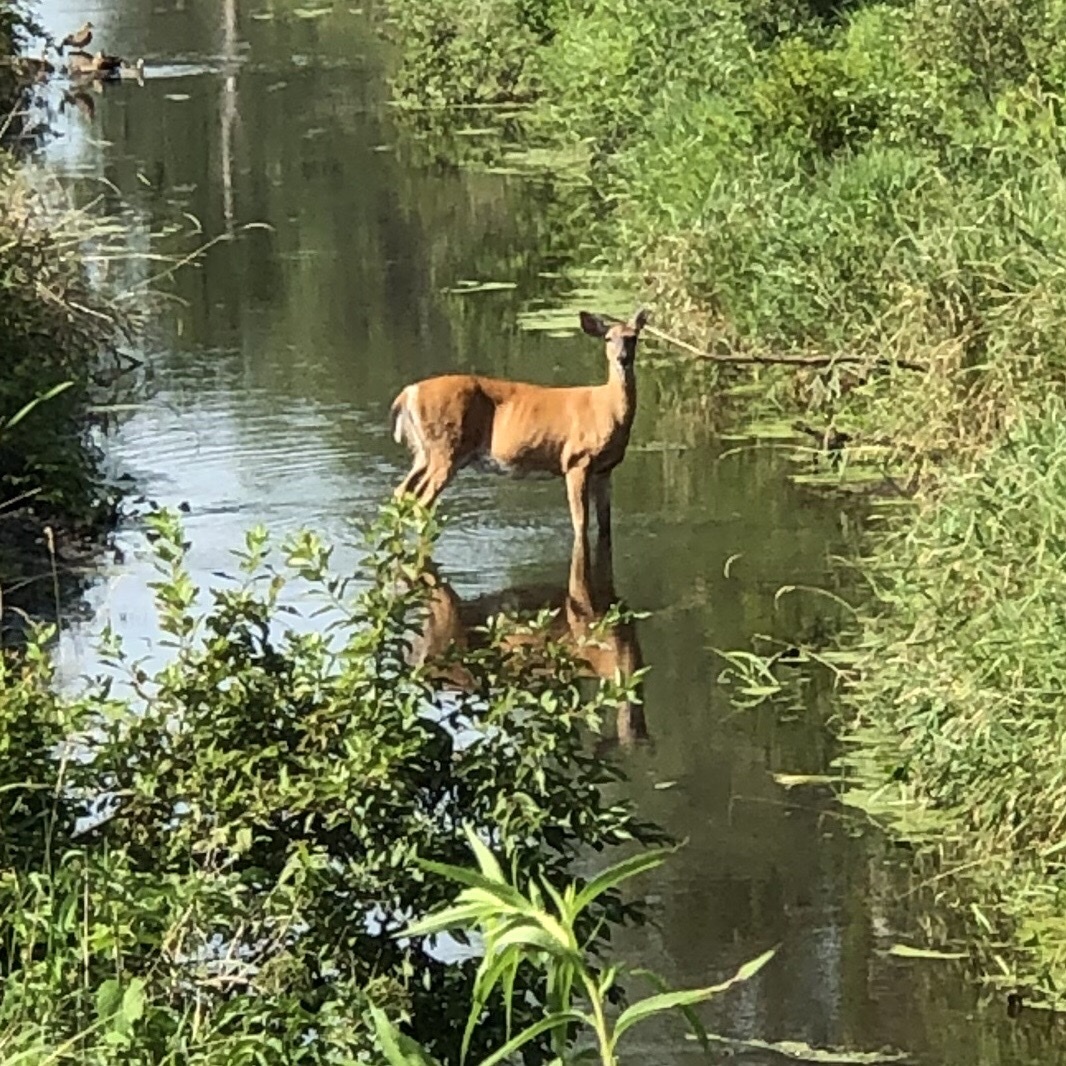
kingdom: Animalia
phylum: Chordata
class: Mammalia
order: Artiodactyla
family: Cervidae
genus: Odocoileus
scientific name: Odocoileus virginianus
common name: White-tailed deer
